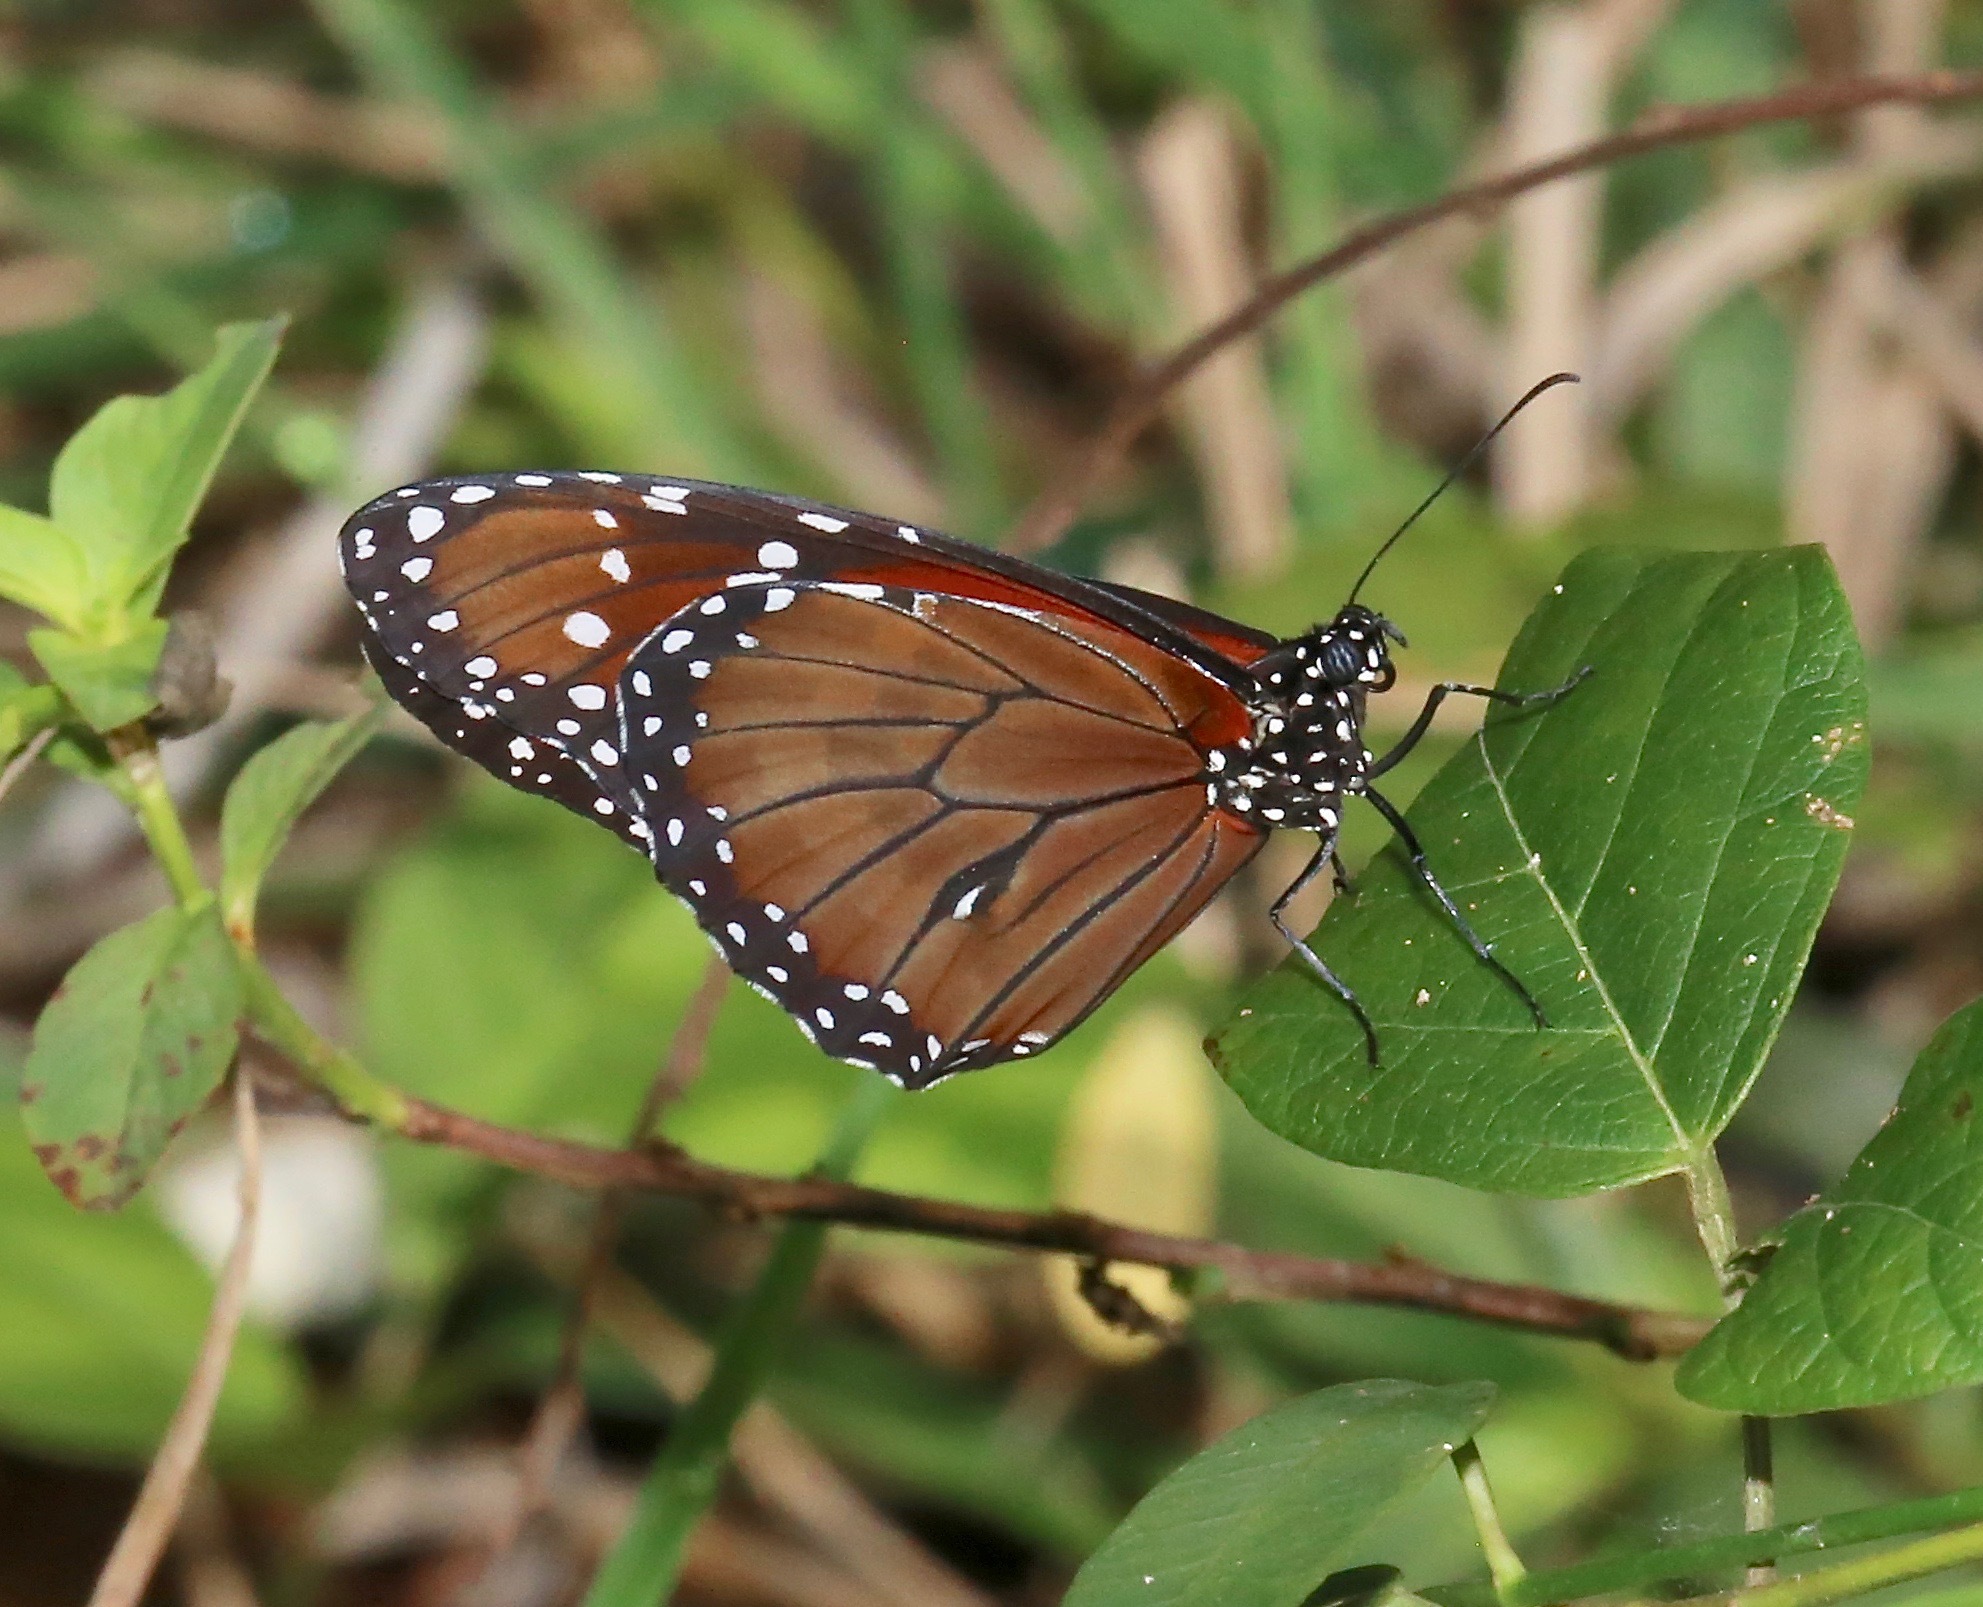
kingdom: Animalia
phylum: Arthropoda
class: Insecta
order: Lepidoptera
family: Nymphalidae
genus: Danaus
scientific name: Danaus eresimus
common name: Soldier
